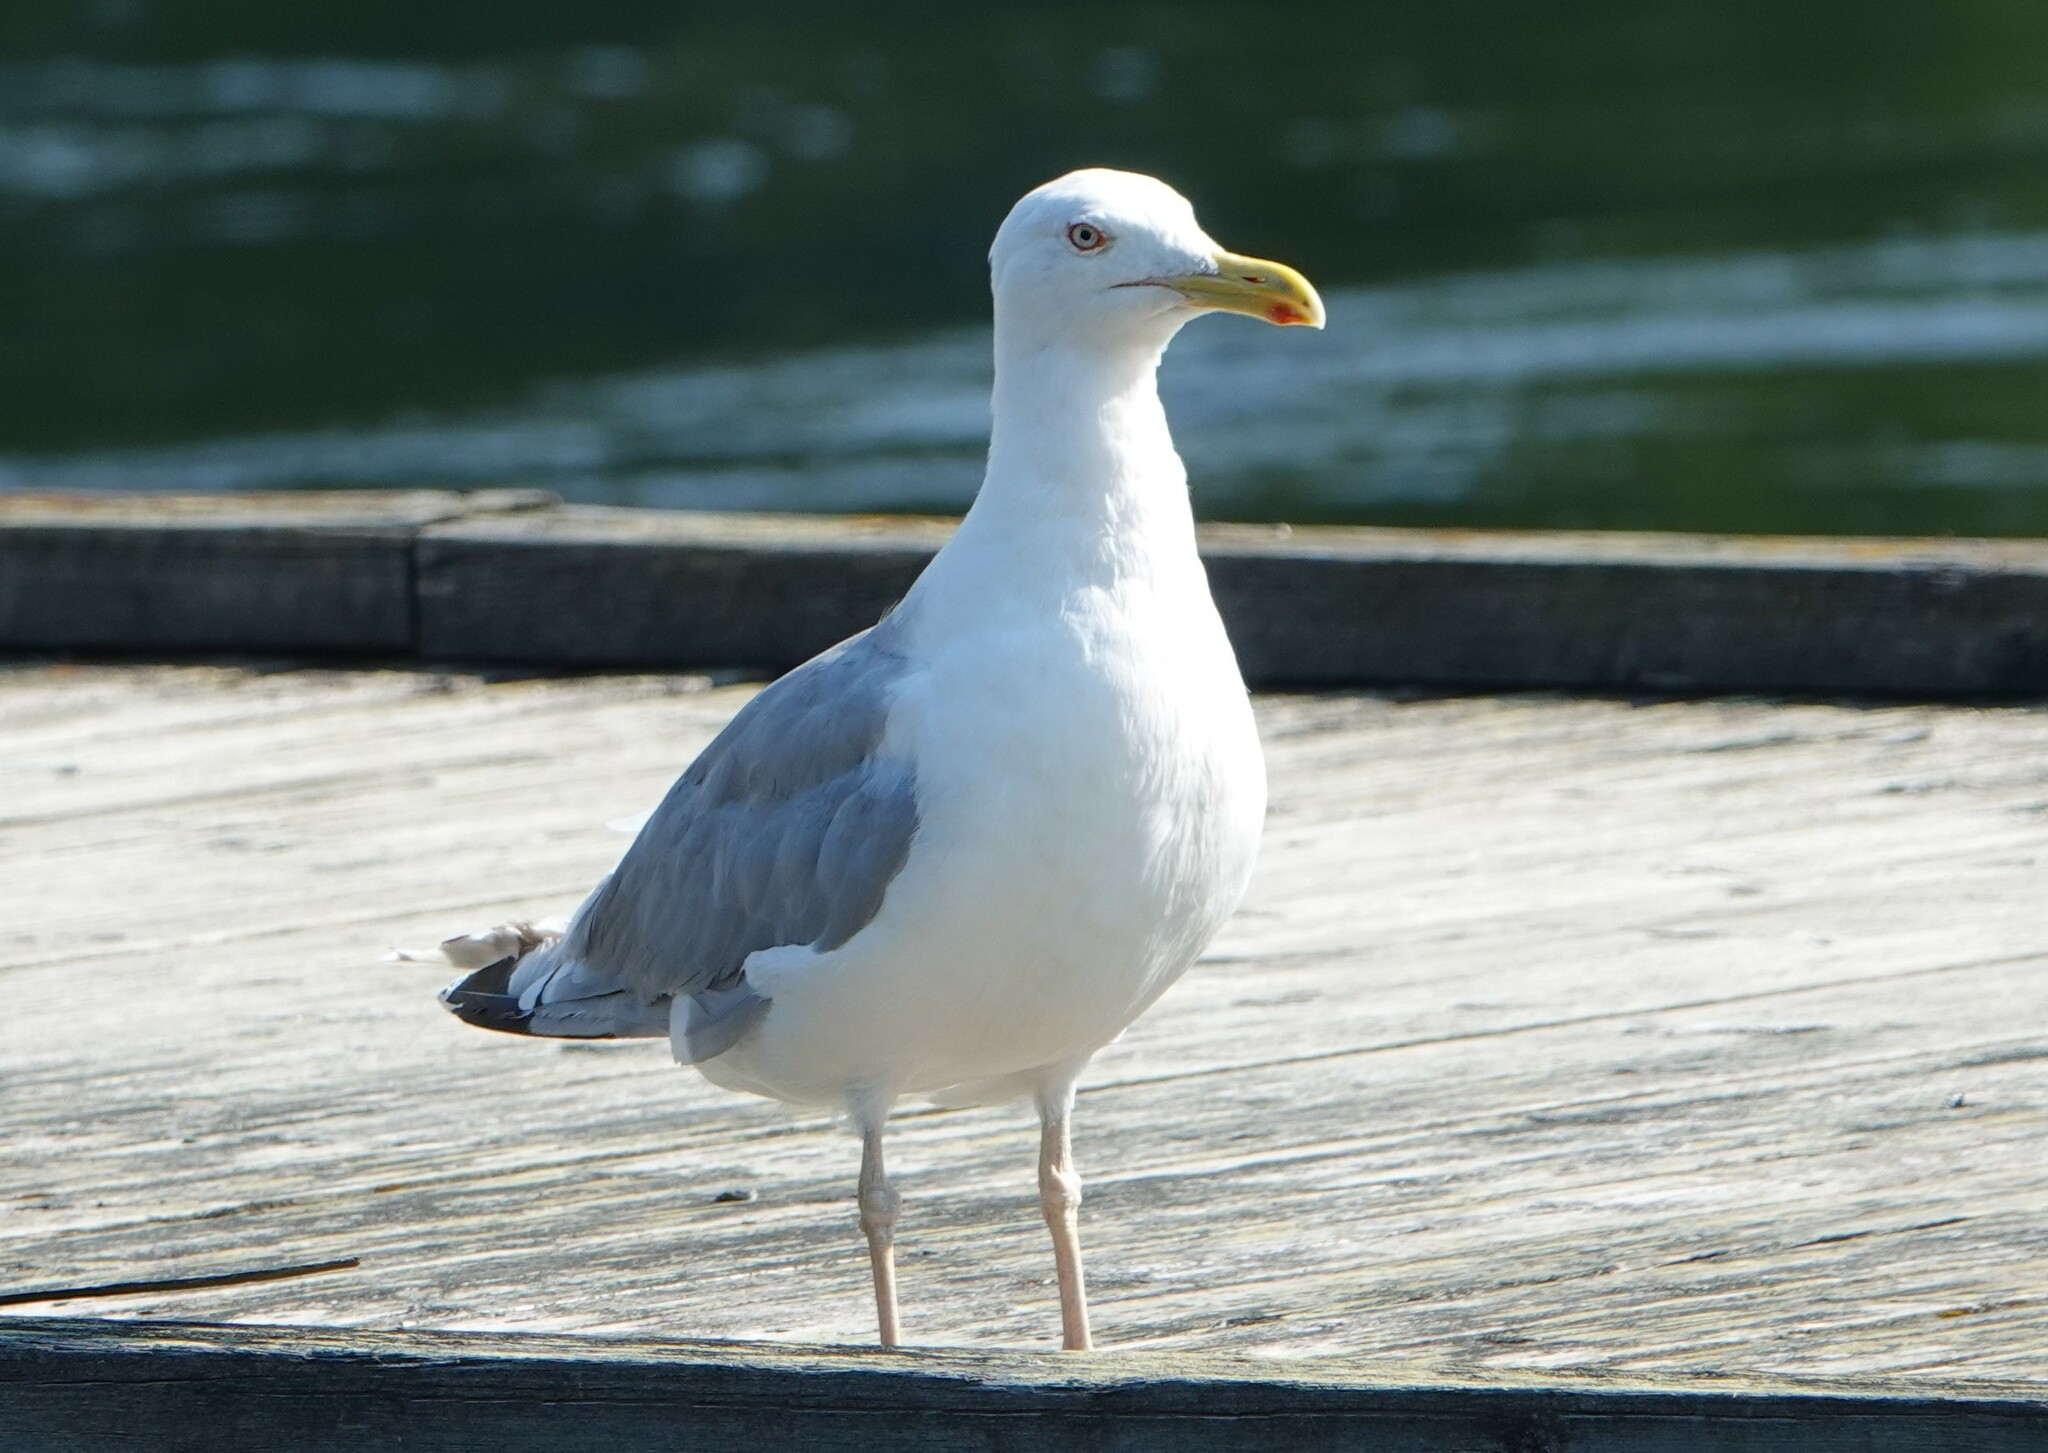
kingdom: Animalia
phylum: Chordata
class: Aves
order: Charadriiformes
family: Laridae
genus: Larus
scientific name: Larus argentatus
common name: Herring gull
